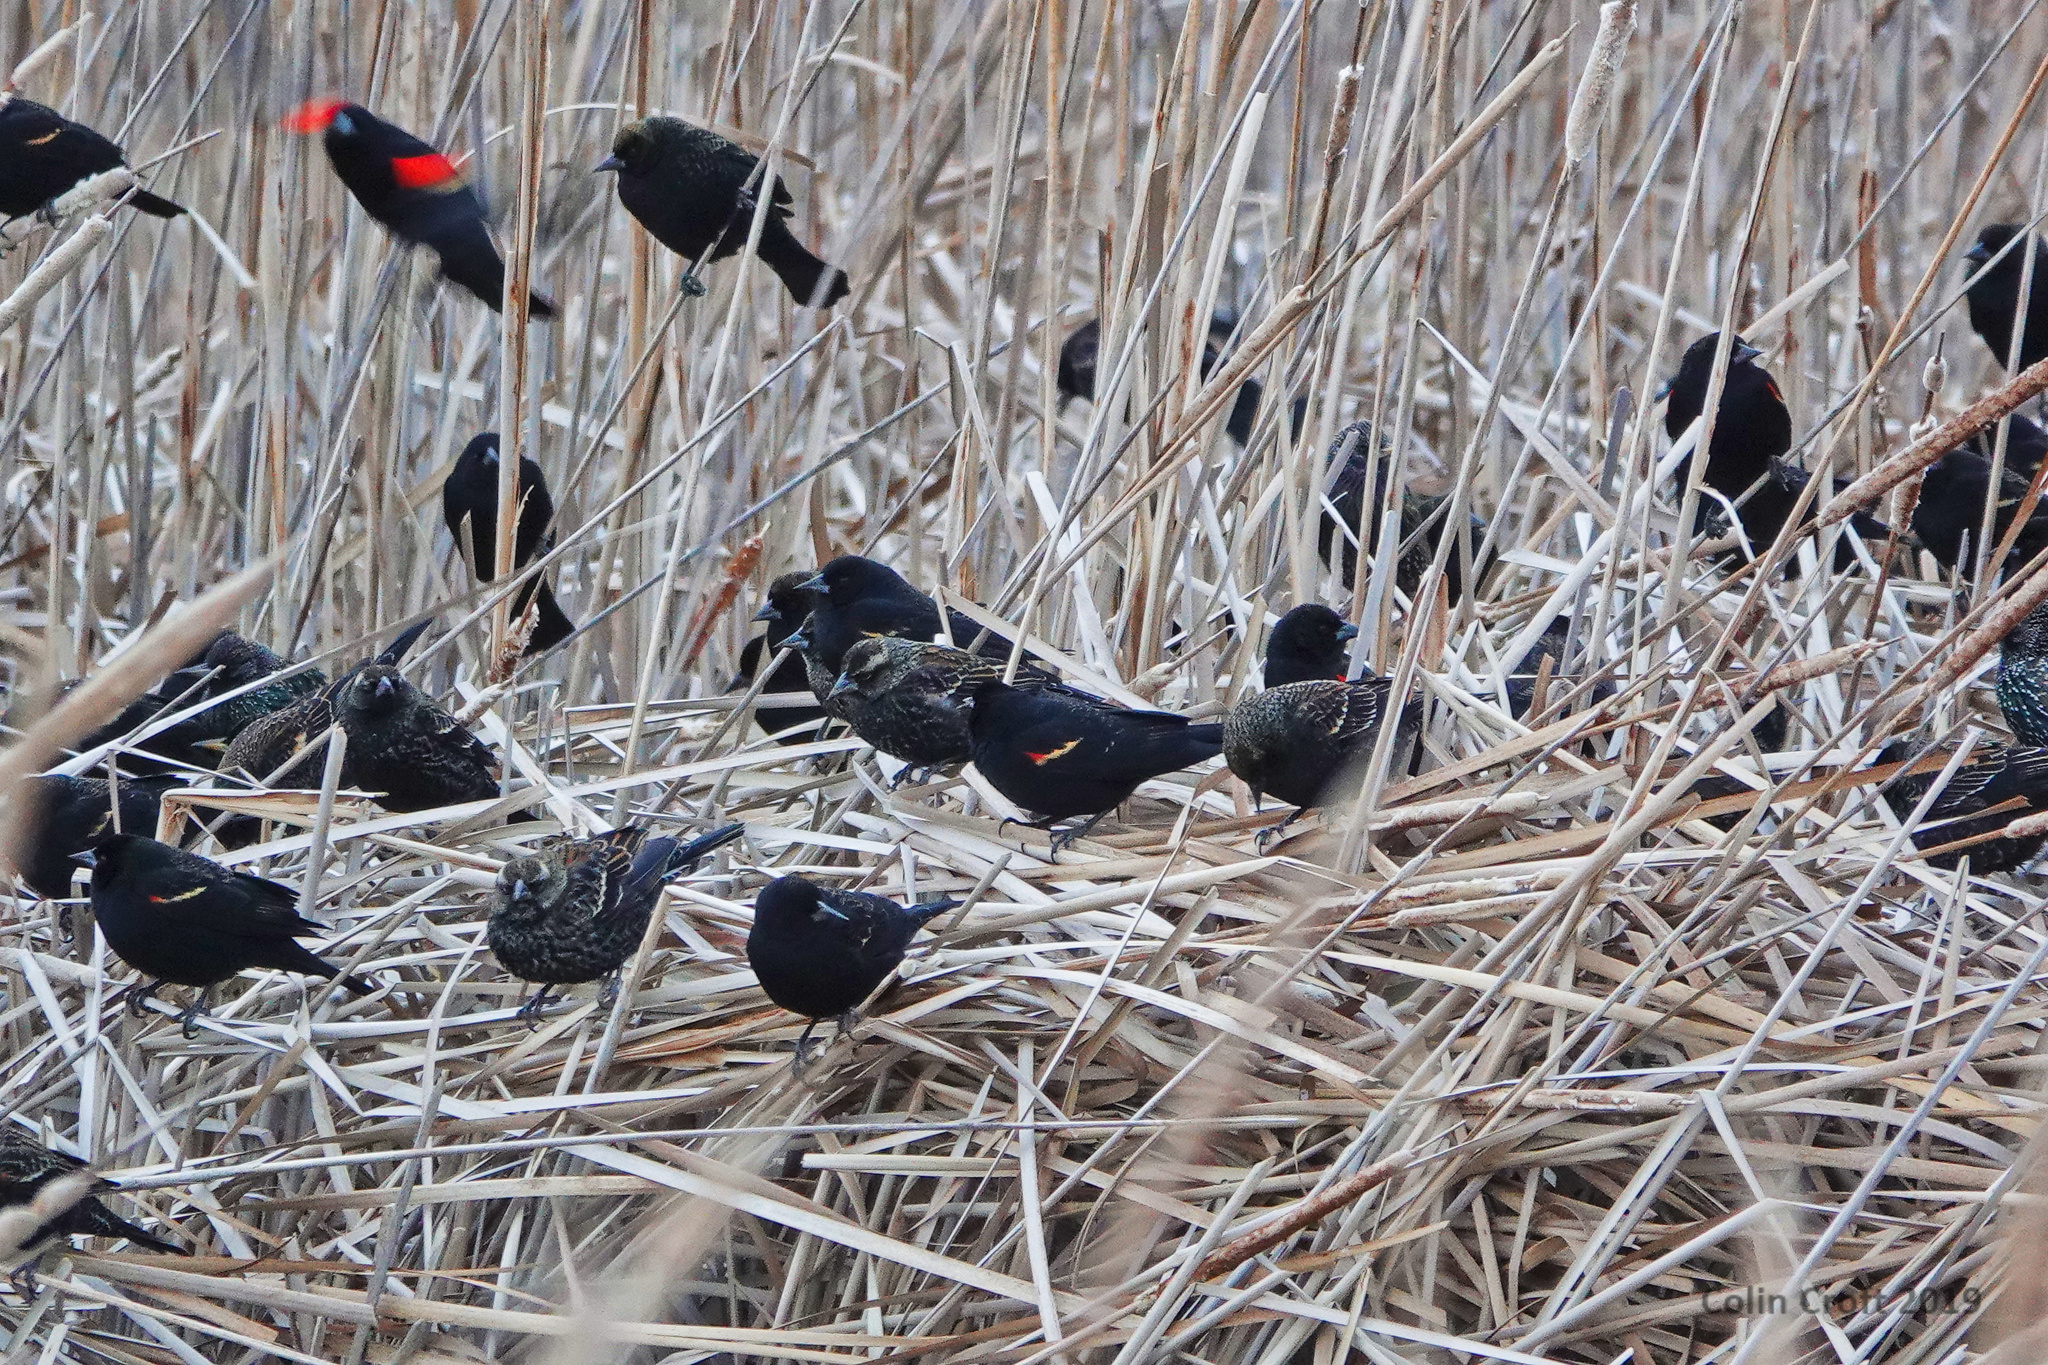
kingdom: Animalia
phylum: Chordata
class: Aves
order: Passeriformes
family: Icteridae
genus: Agelaius
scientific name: Agelaius phoeniceus
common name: Red-winged blackbird
